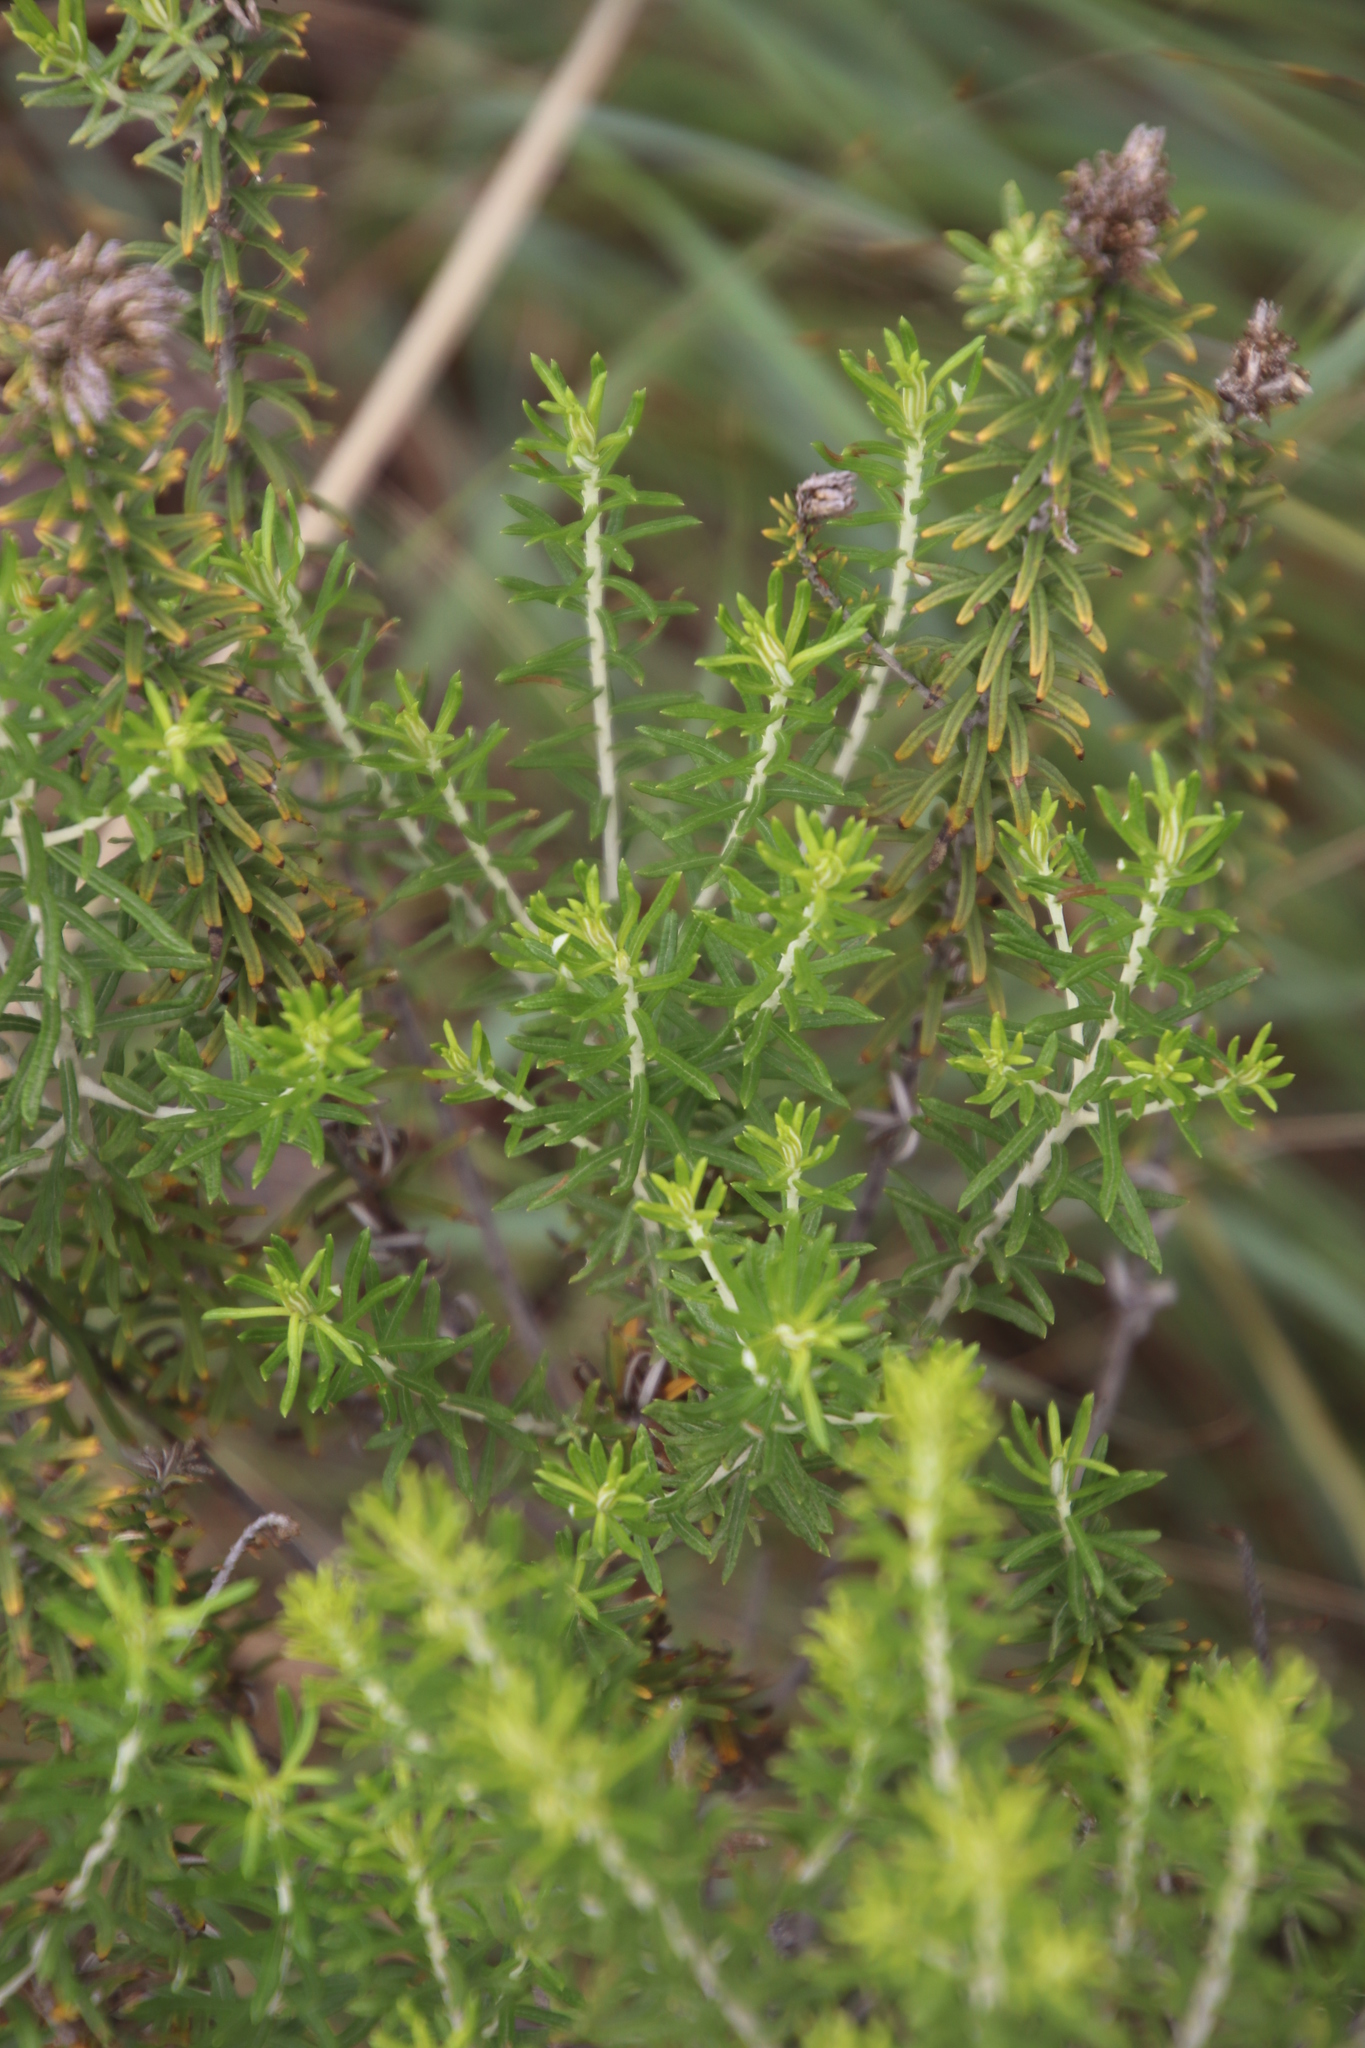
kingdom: Plantae
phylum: Tracheophyta
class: Magnoliopsida
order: Asterales
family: Asteraceae
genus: Helichrysum
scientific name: Helichrysum kraussii
